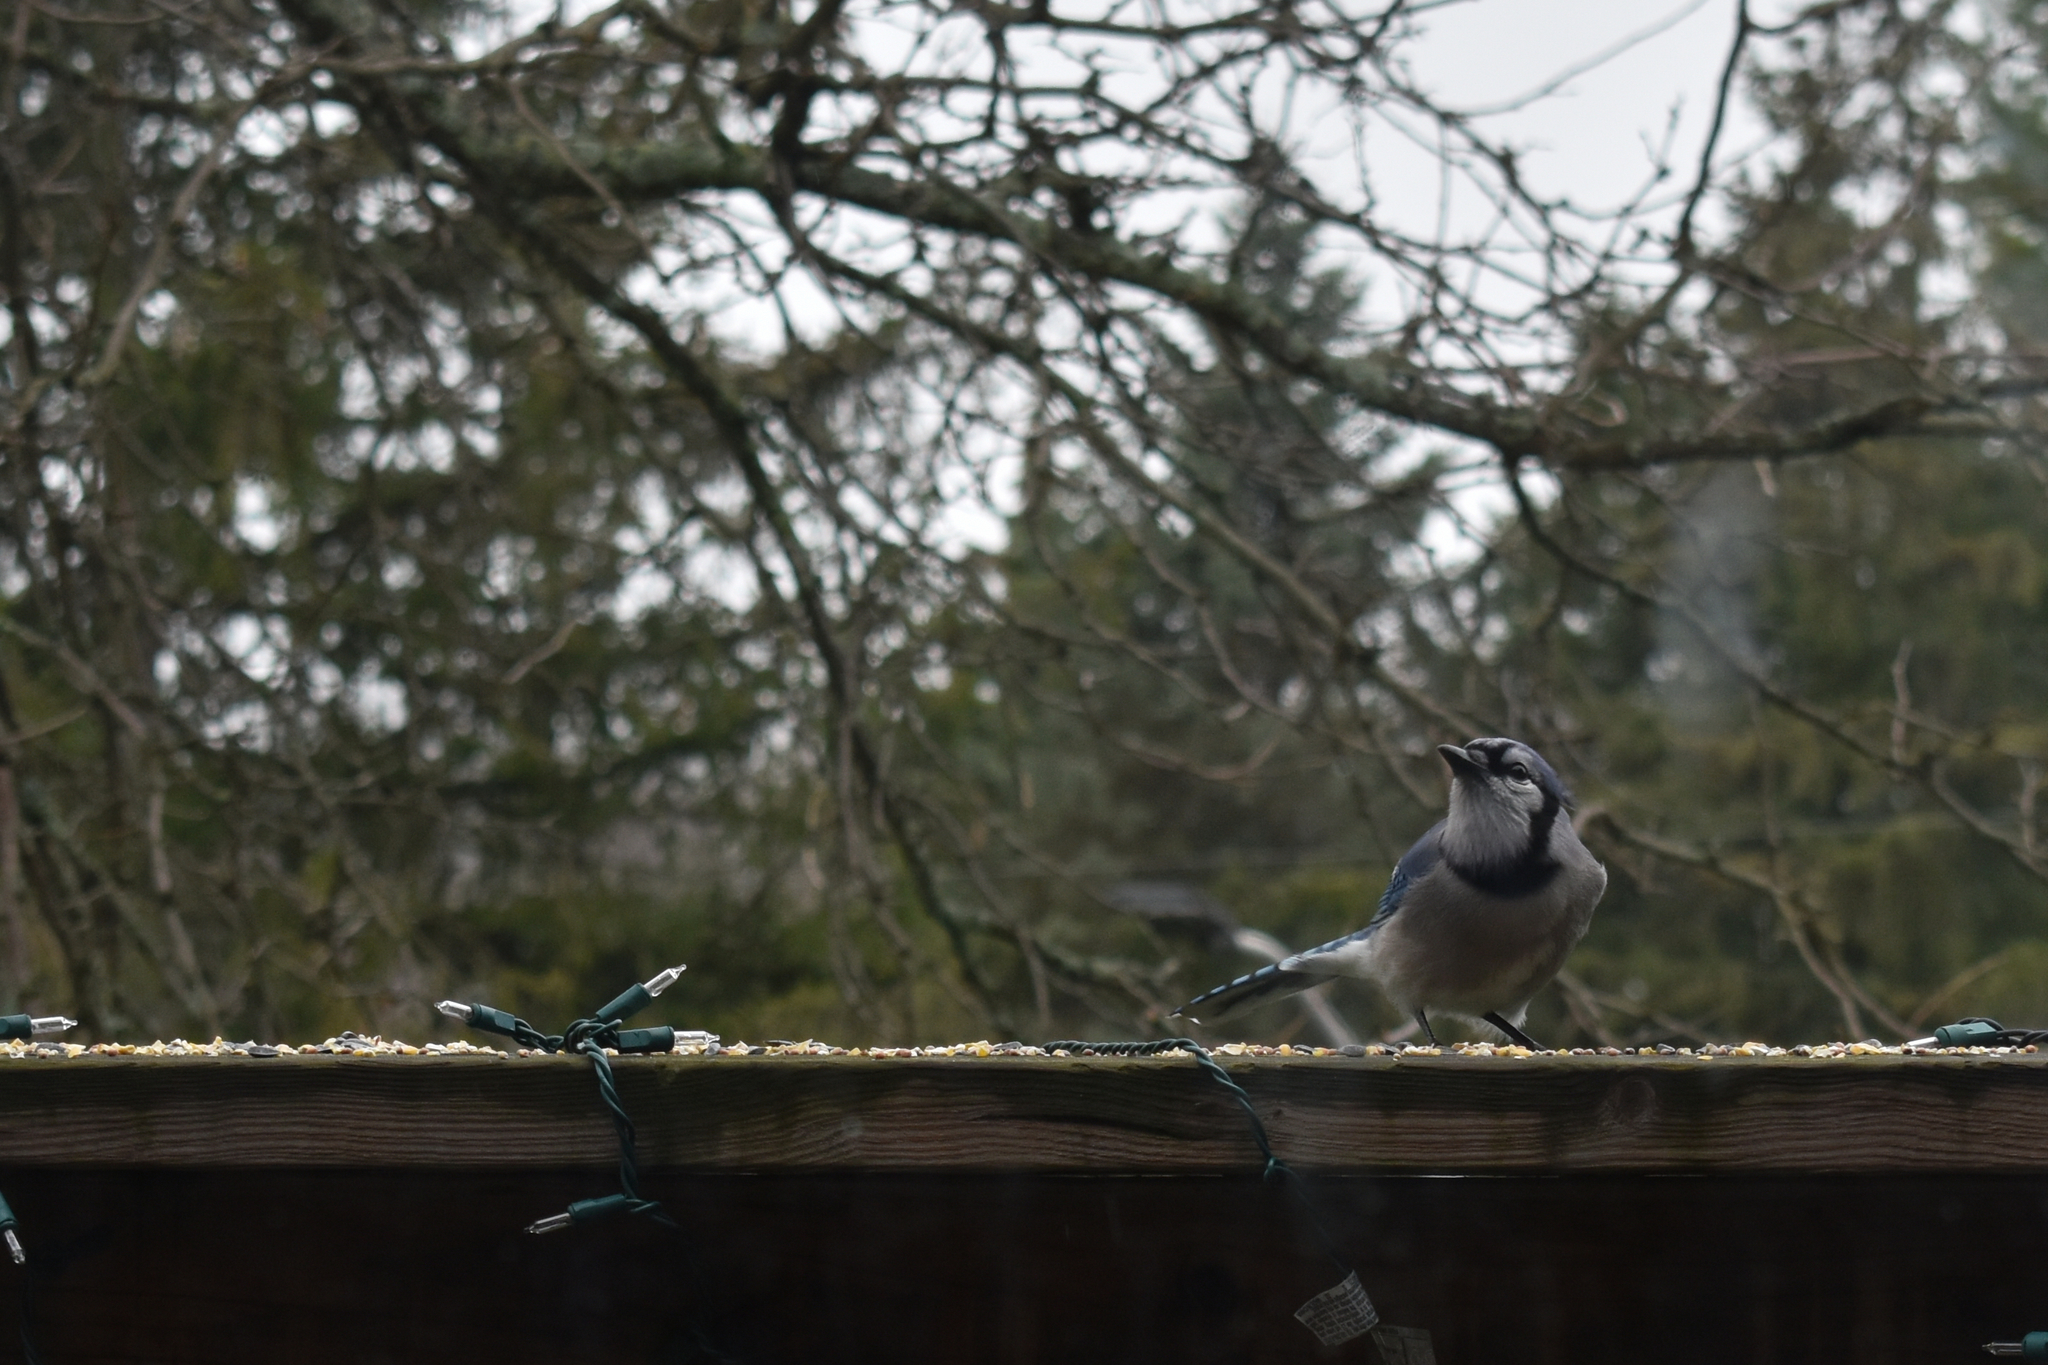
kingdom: Animalia
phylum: Chordata
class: Aves
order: Passeriformes
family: Corvidae
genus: Cyanocitta
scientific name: Cyanocitta cristata
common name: Blue jay
